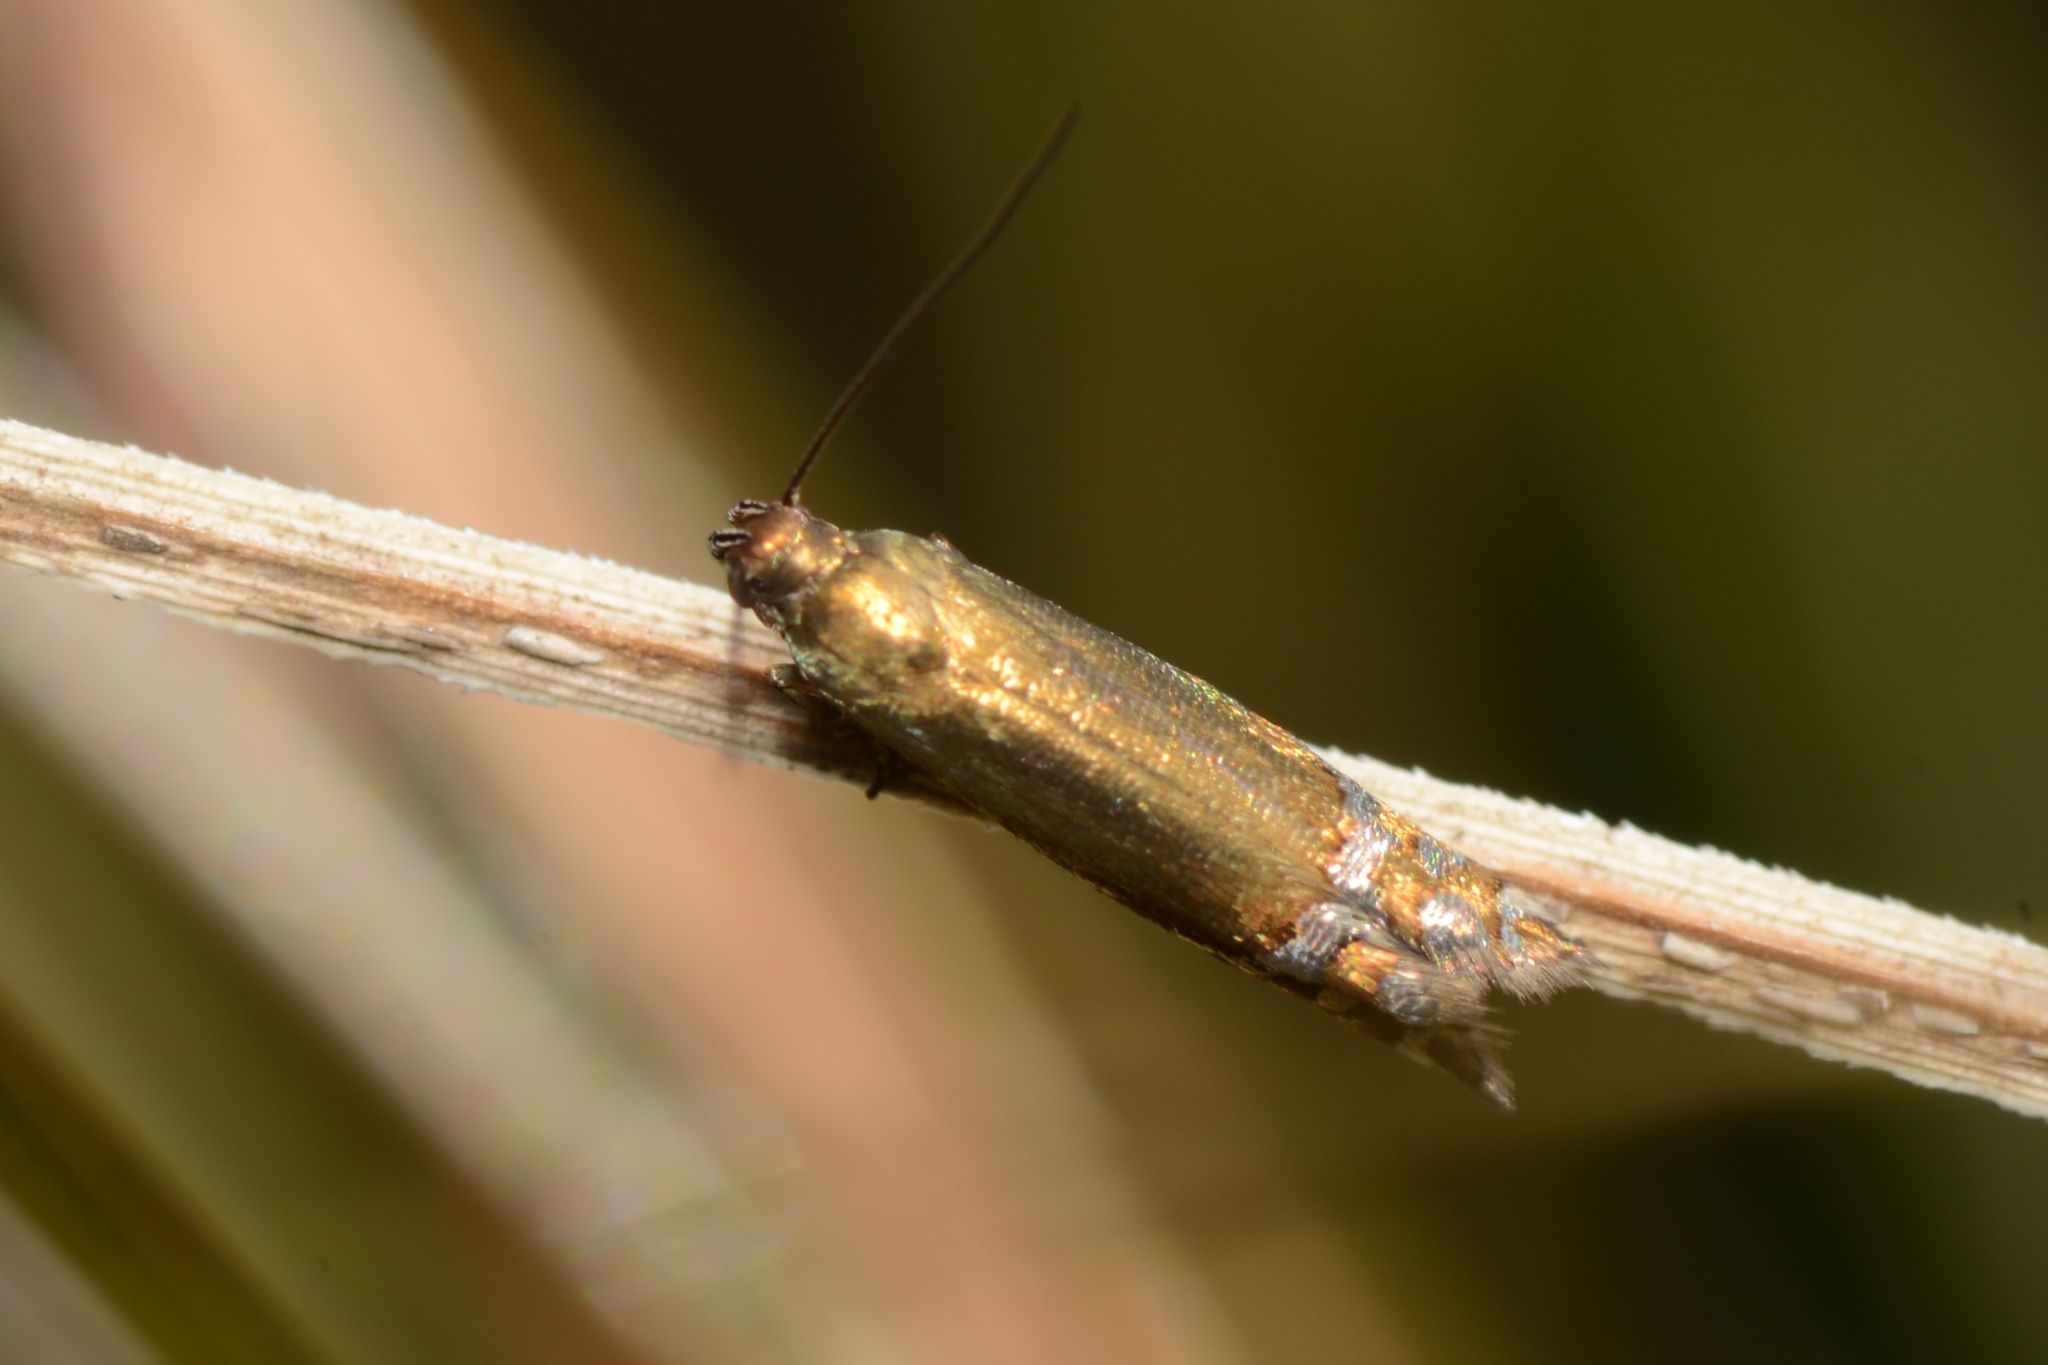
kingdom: Animalia
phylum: Arthropoda
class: Insecta
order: Lepidoptera
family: Glyphipterigidae
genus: Glyphipterix
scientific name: Glyphipterix astrapaea
